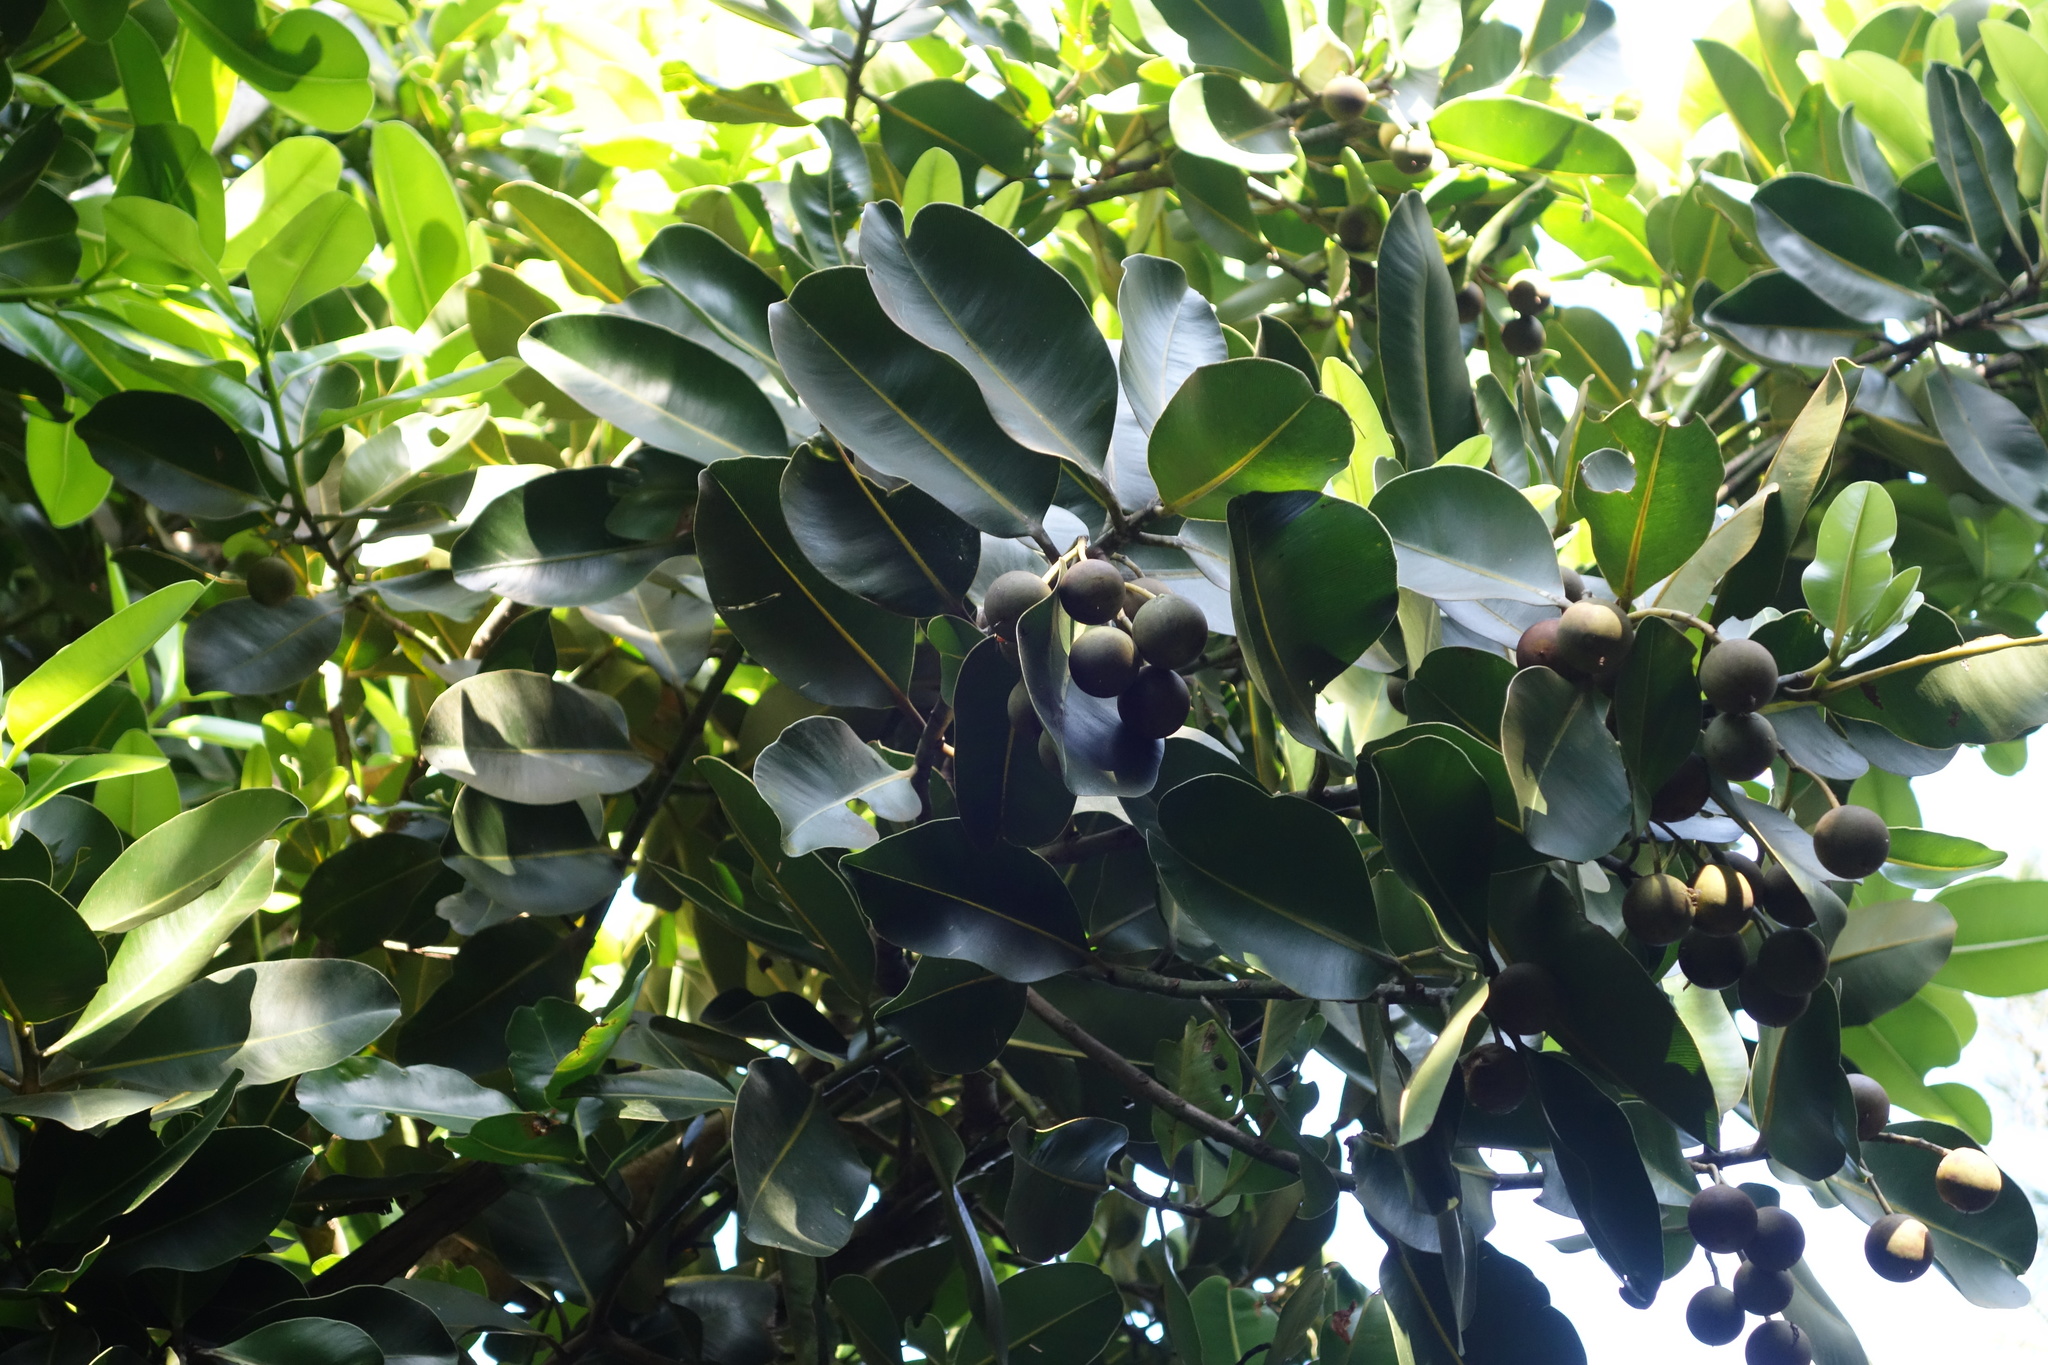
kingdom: Plantae
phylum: Tracheophyta
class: Magnoliopsida
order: Malpighiales
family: Calophyllaceae
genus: Calophyllum
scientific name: Calophyllum inophyllum
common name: Alexandrian laurel
